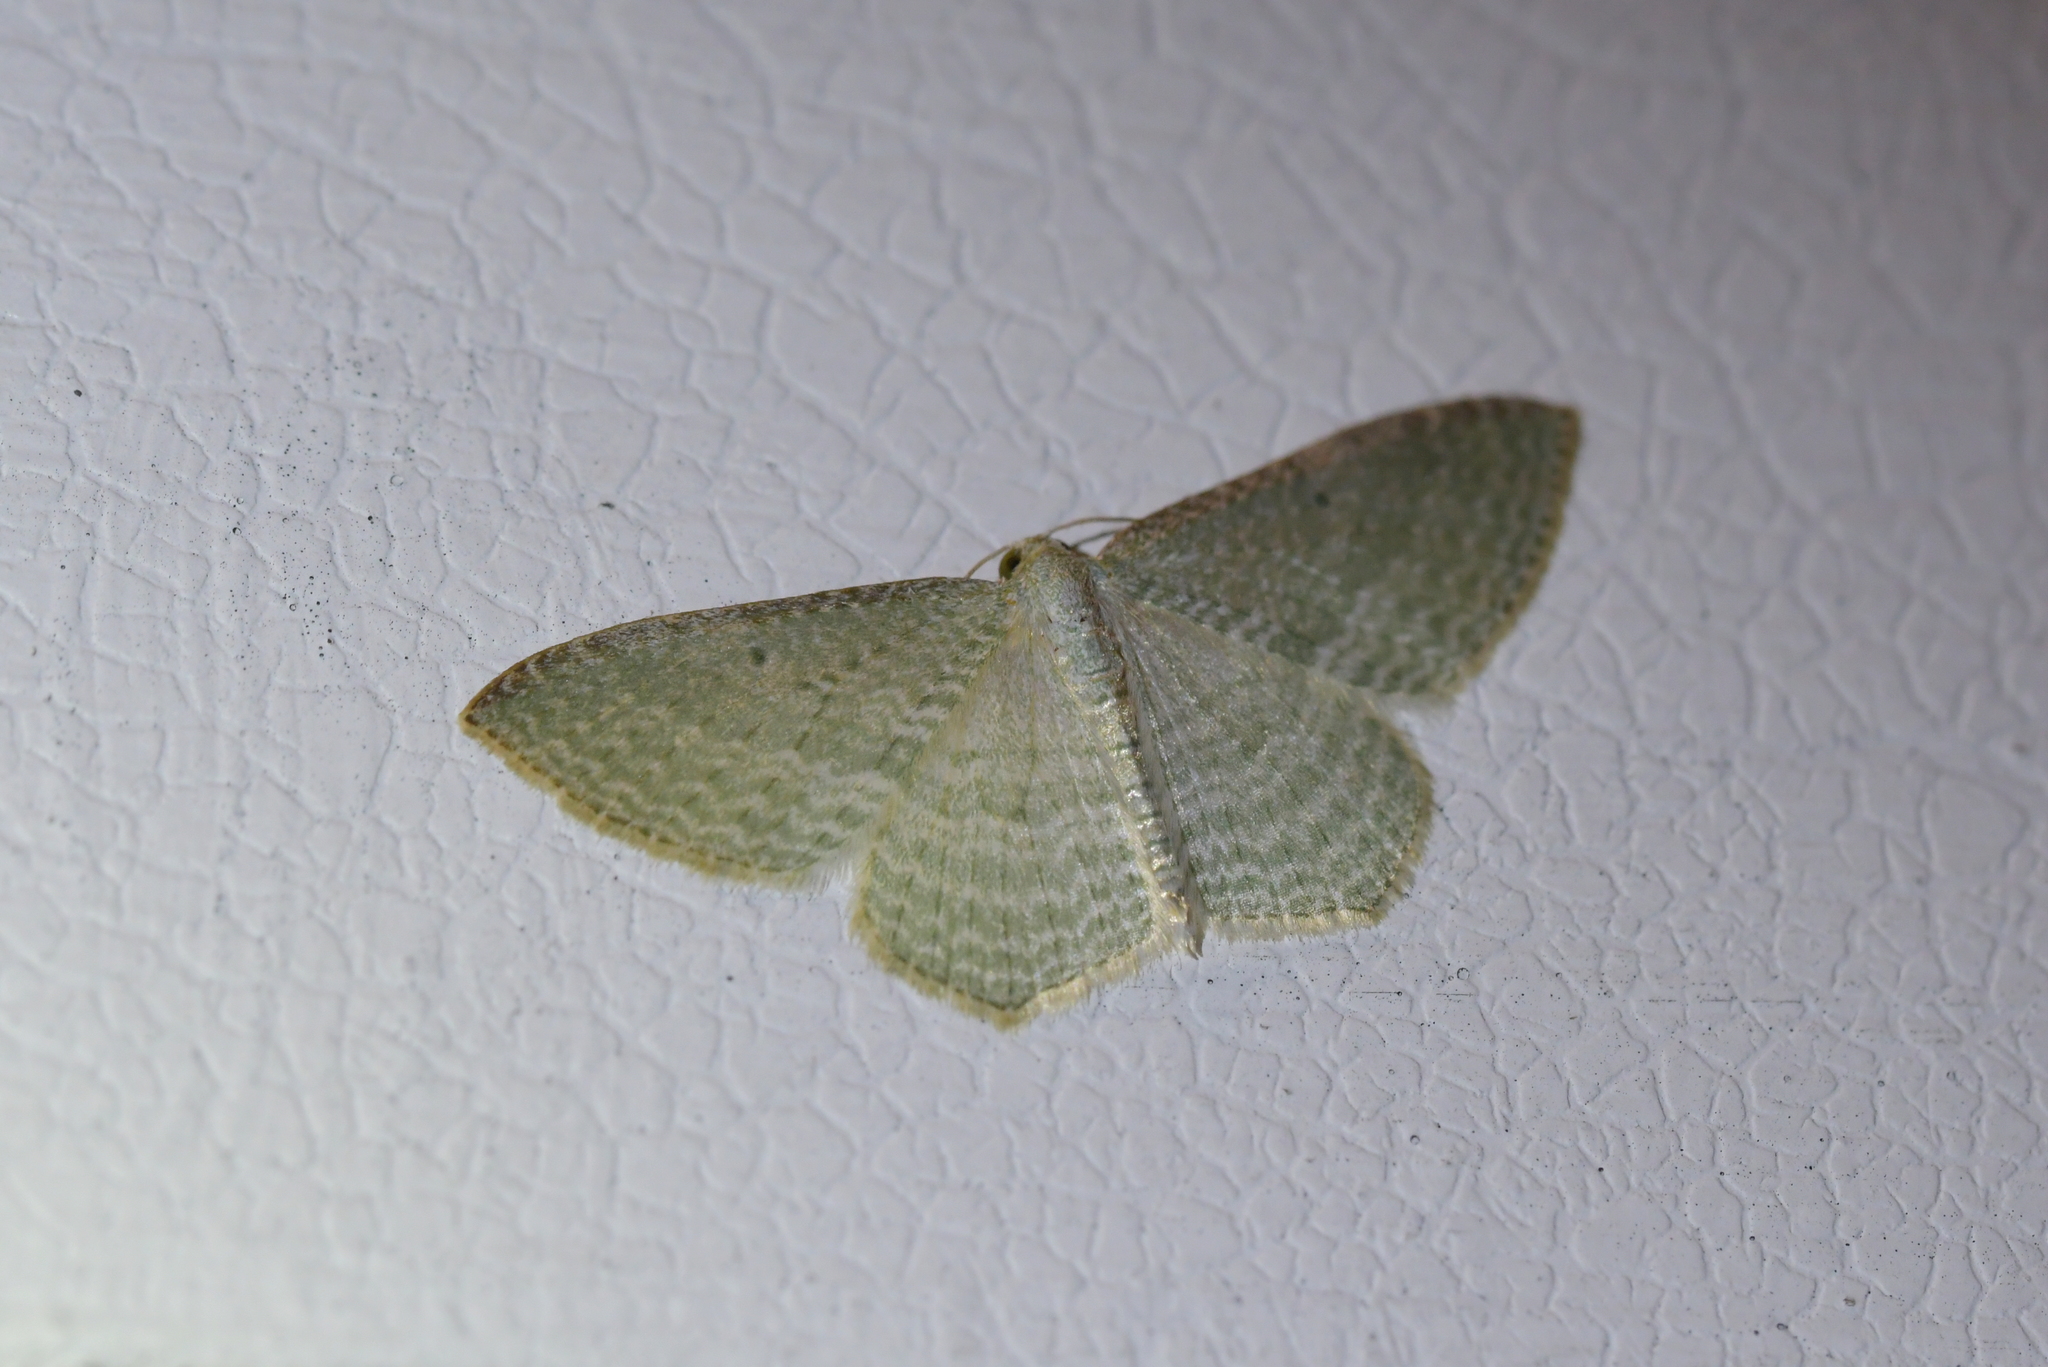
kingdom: Animalia
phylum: Arthropoda
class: Insecta
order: Lepidoptera
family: Geometridae
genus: Poecilasthena
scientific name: Poecilasthena pulchraria
